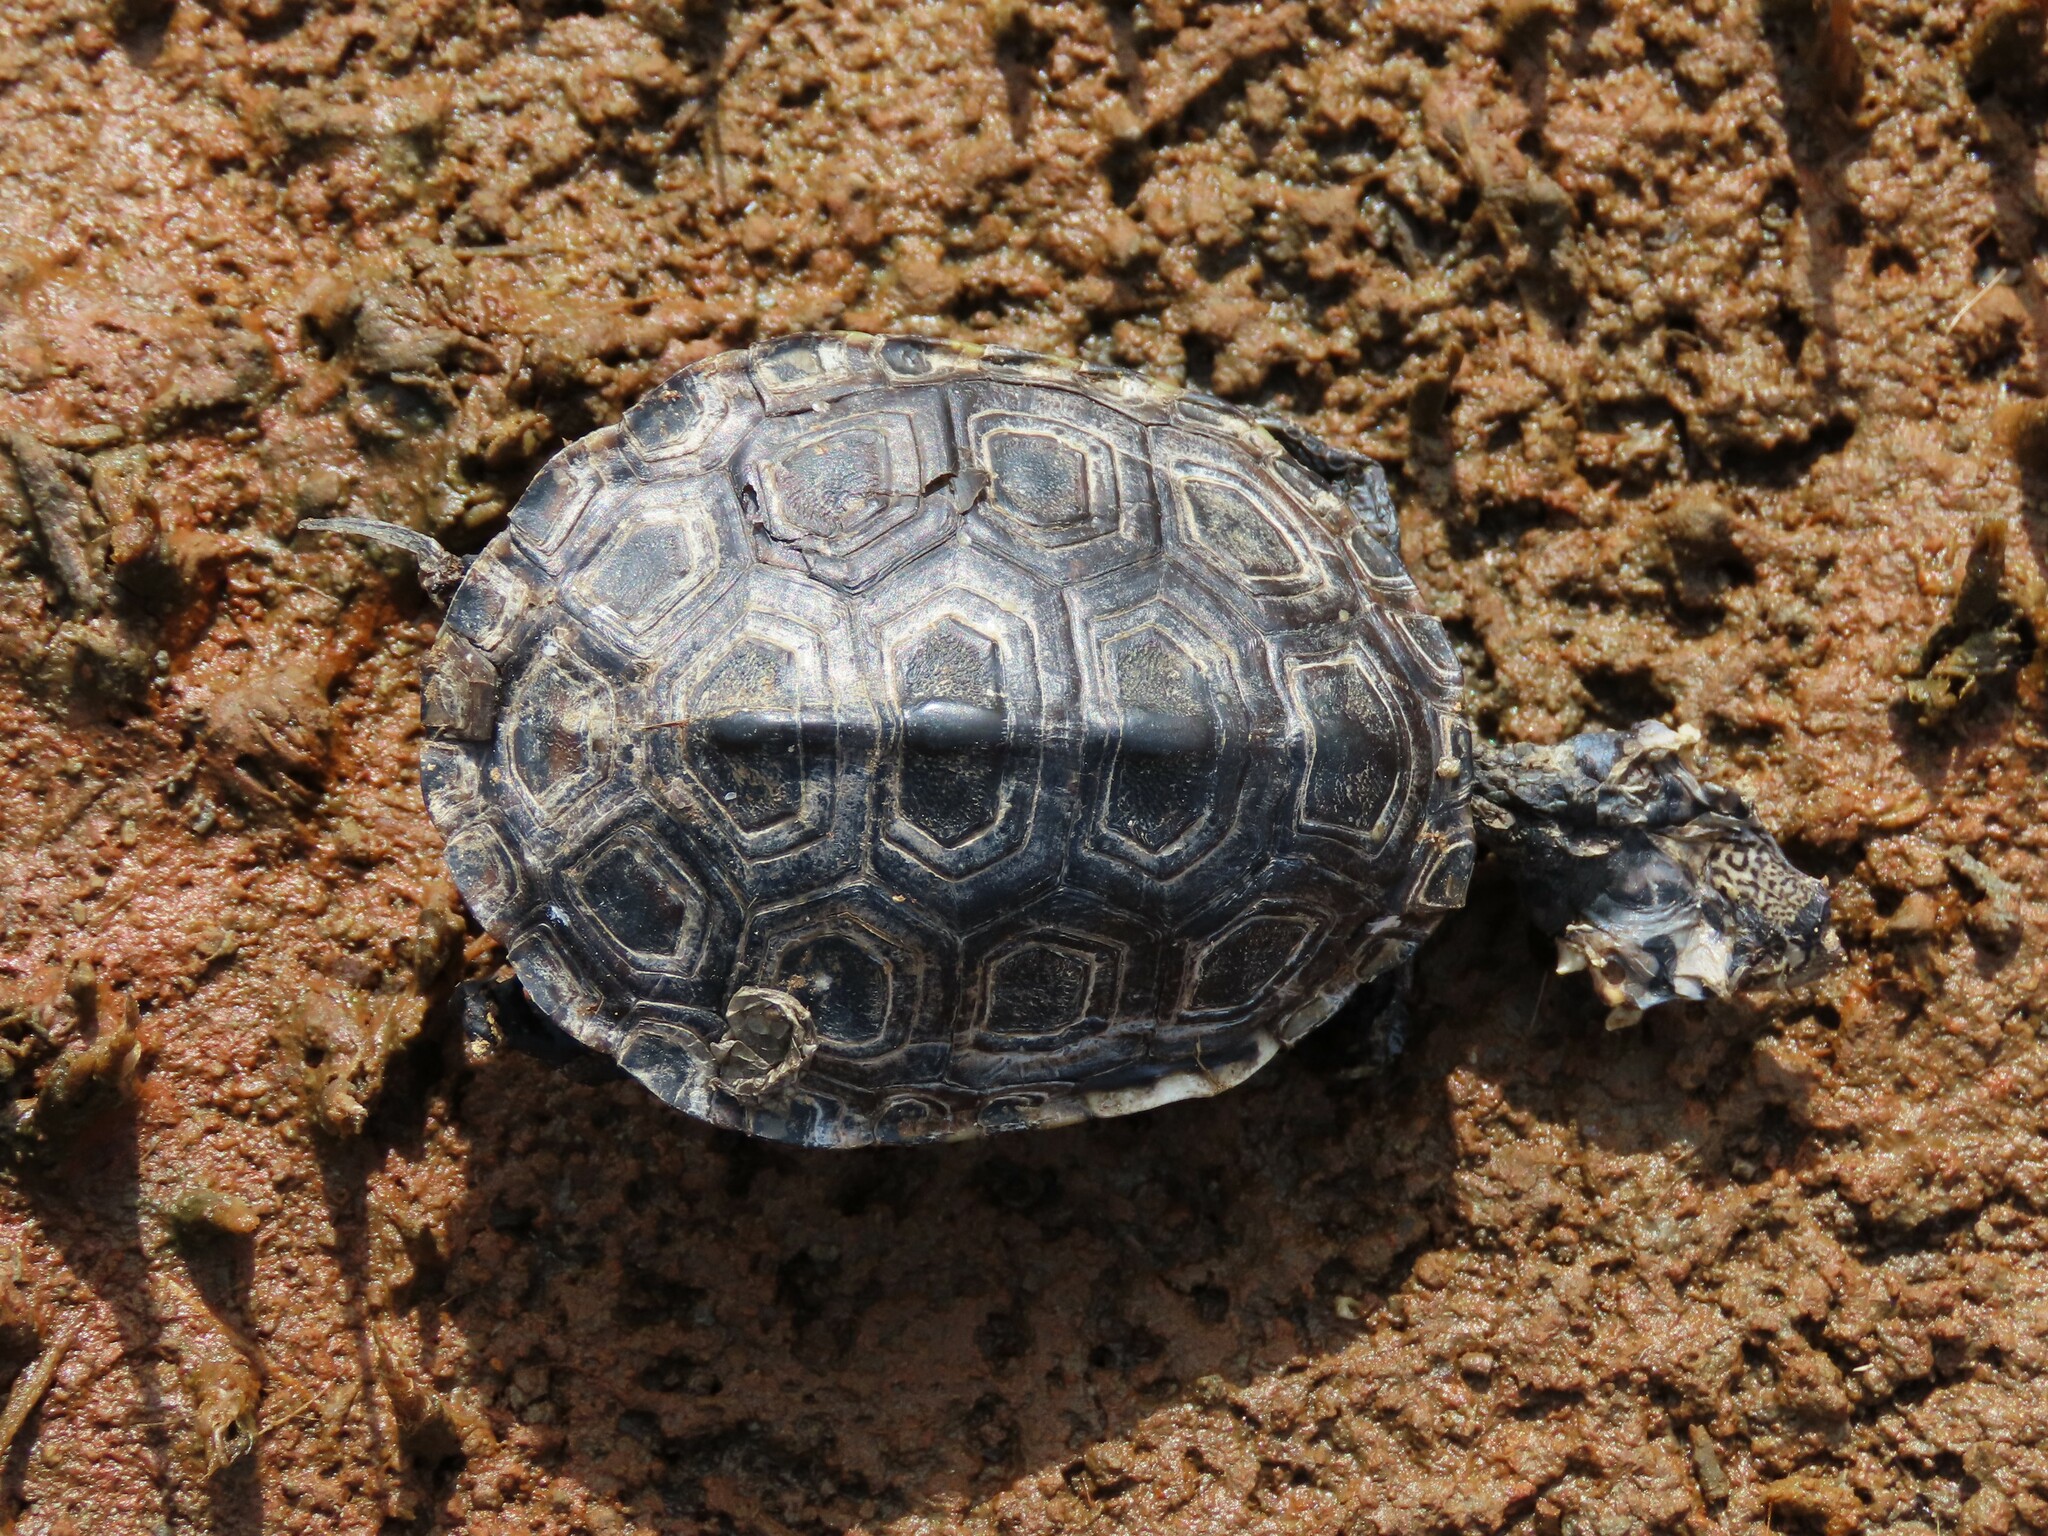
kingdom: Animalia
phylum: Chordata
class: Testudines
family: Emydidae
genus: Malaclemys
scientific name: Malaclemys terrapin
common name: Diamondback terrapin
